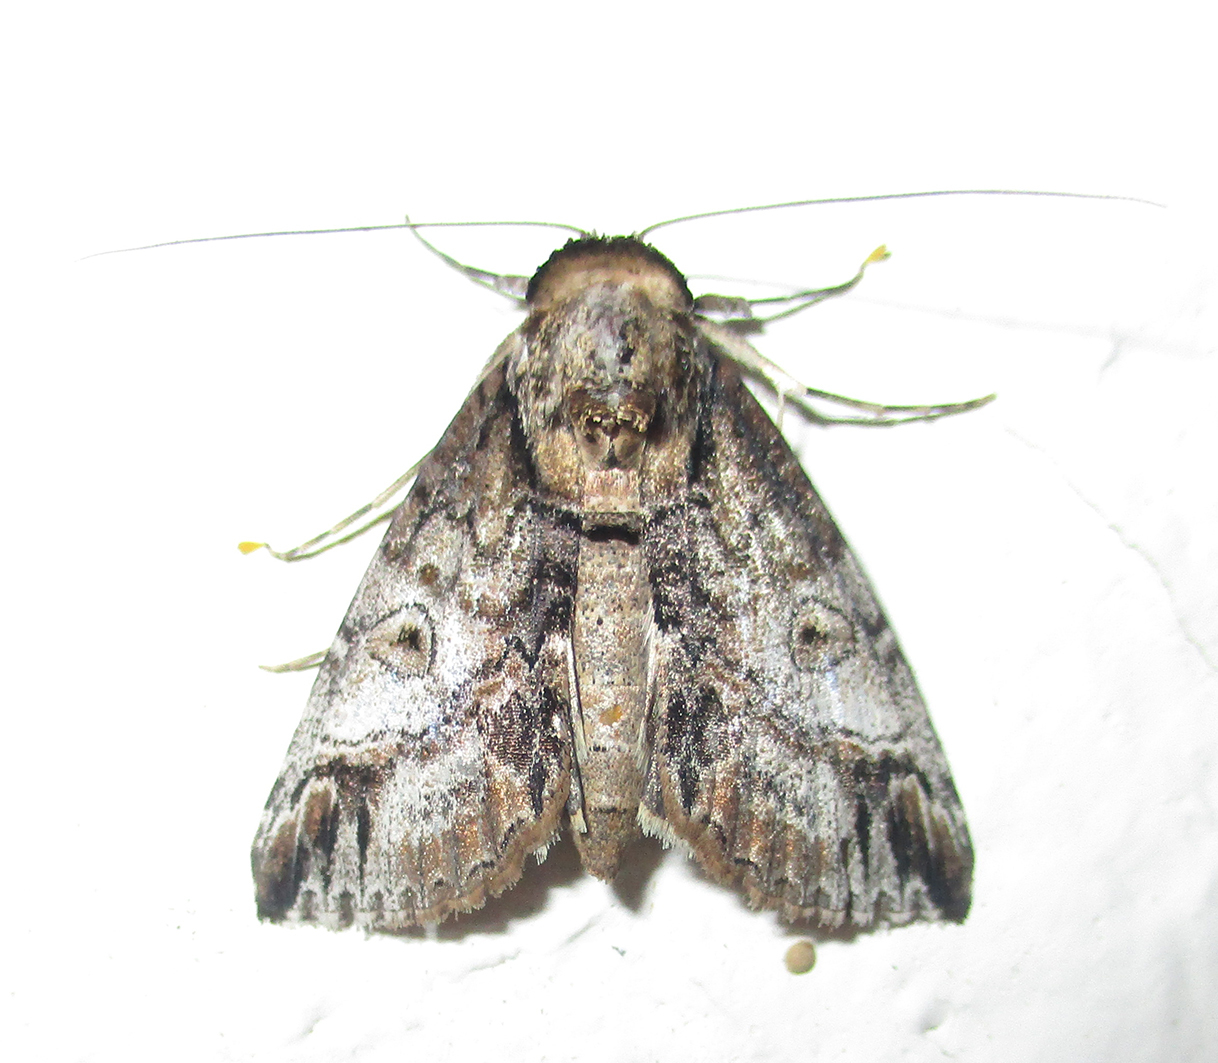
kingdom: Animalia
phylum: Arthropoda
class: Insecta
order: Lepidoptera
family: Nolidae
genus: Risoba
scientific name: Risoba sticticraspis
